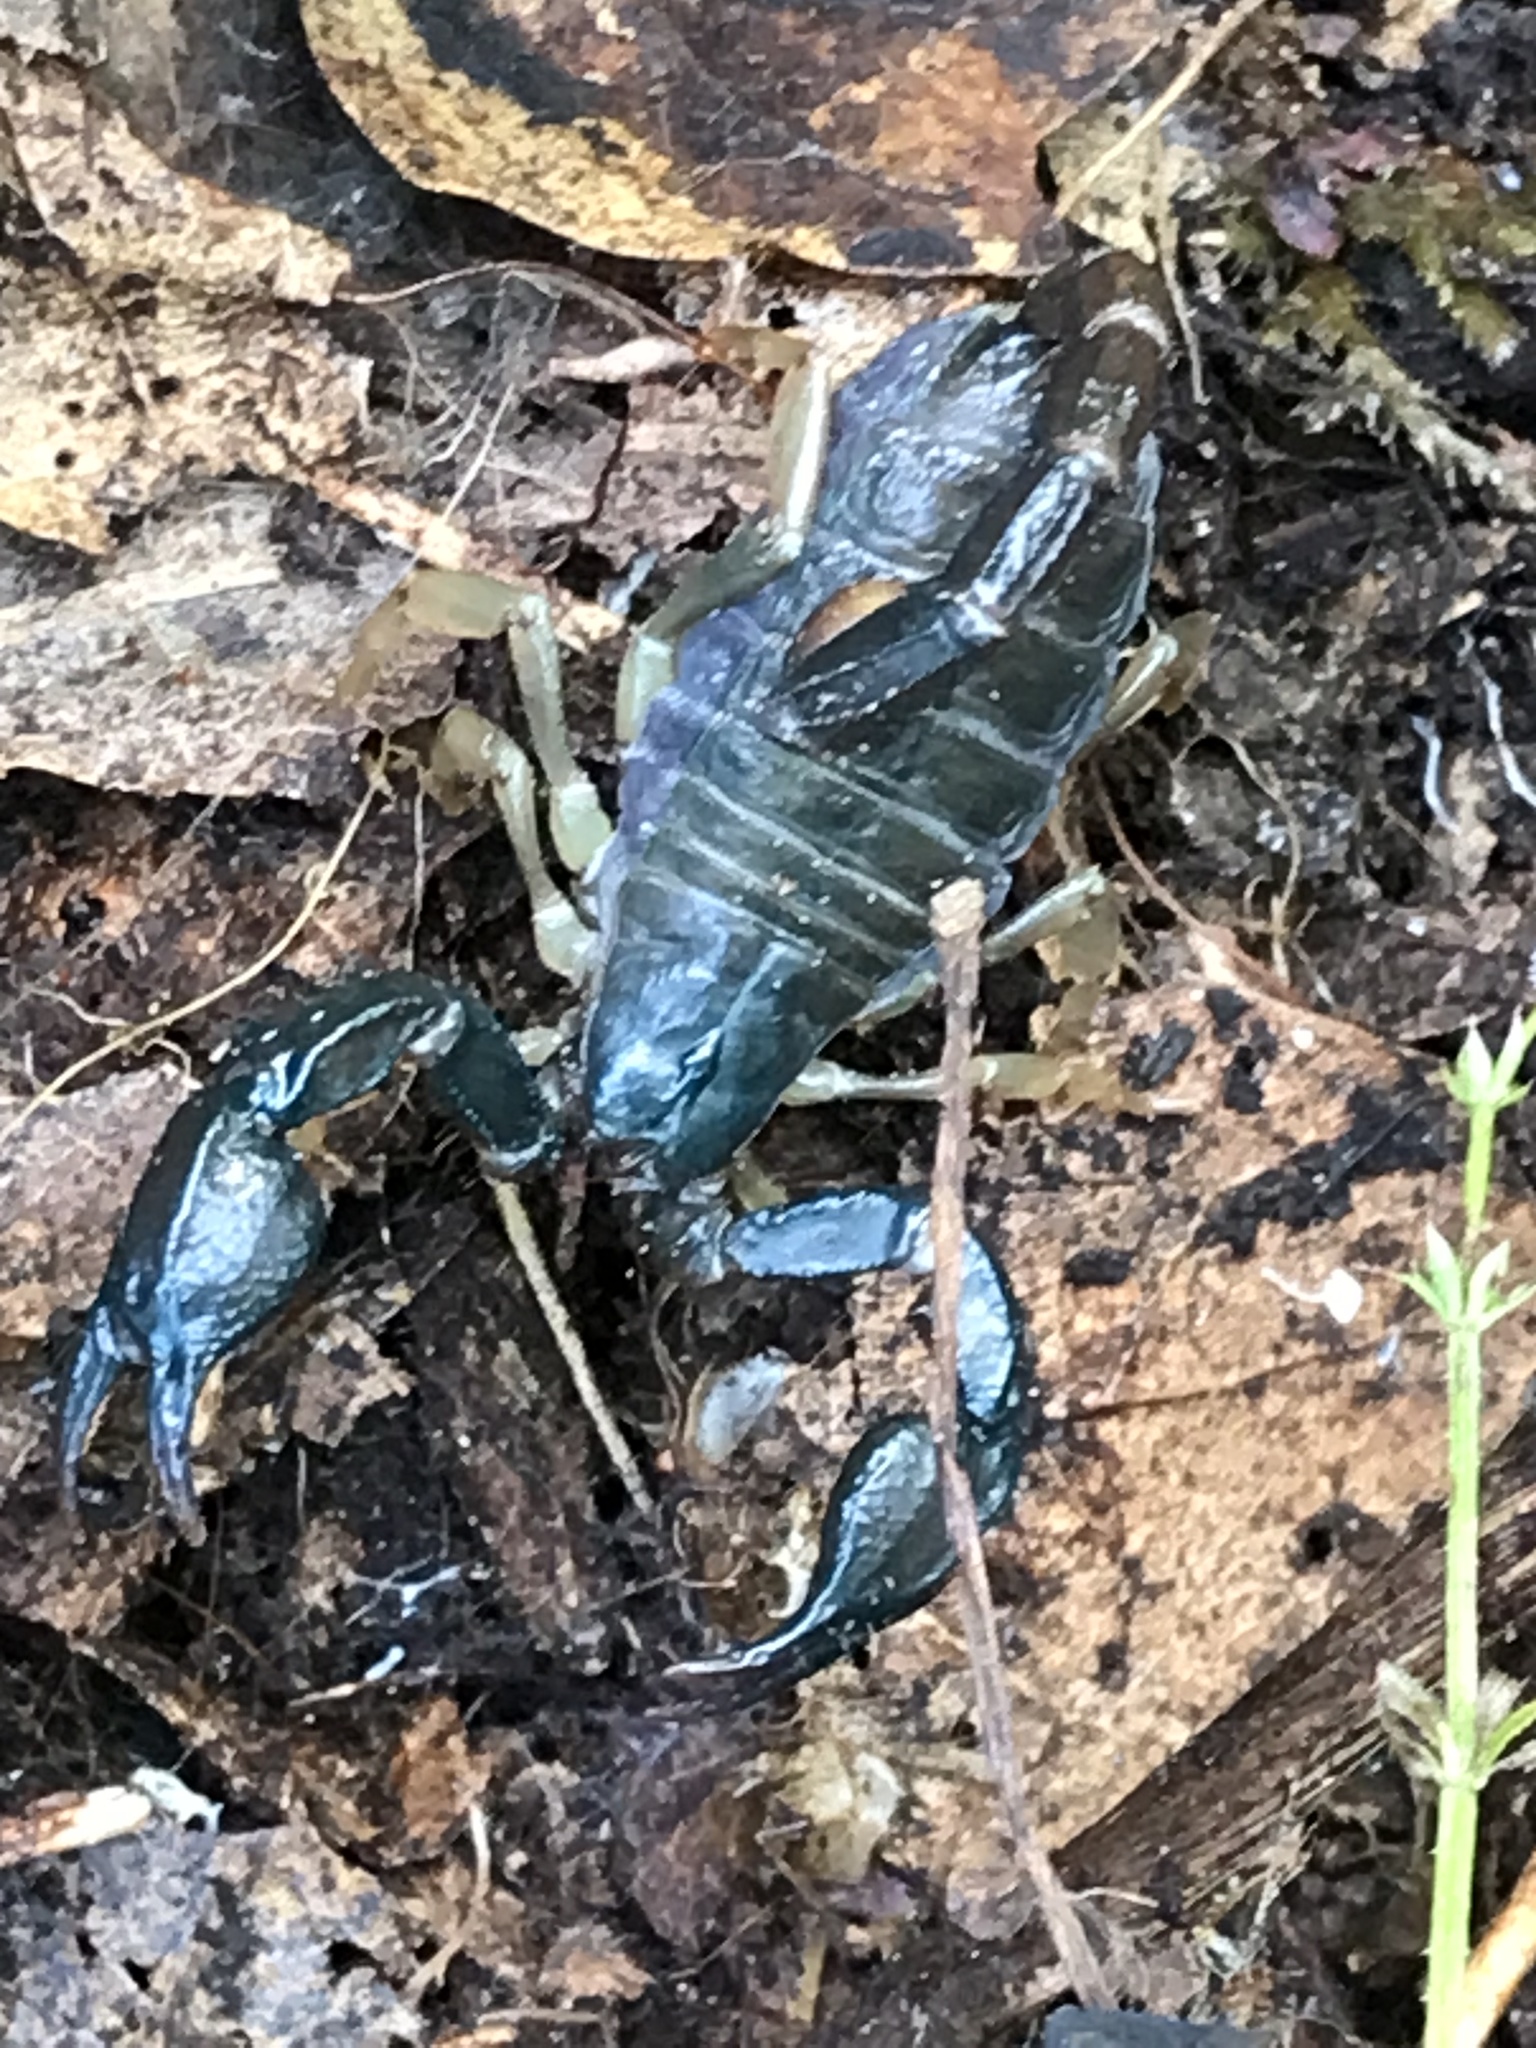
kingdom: Animalia
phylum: Arthropoda
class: Arachnida
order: Scorpiones
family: Chactidae
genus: Uroctonus
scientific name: Uroctonus mordax
